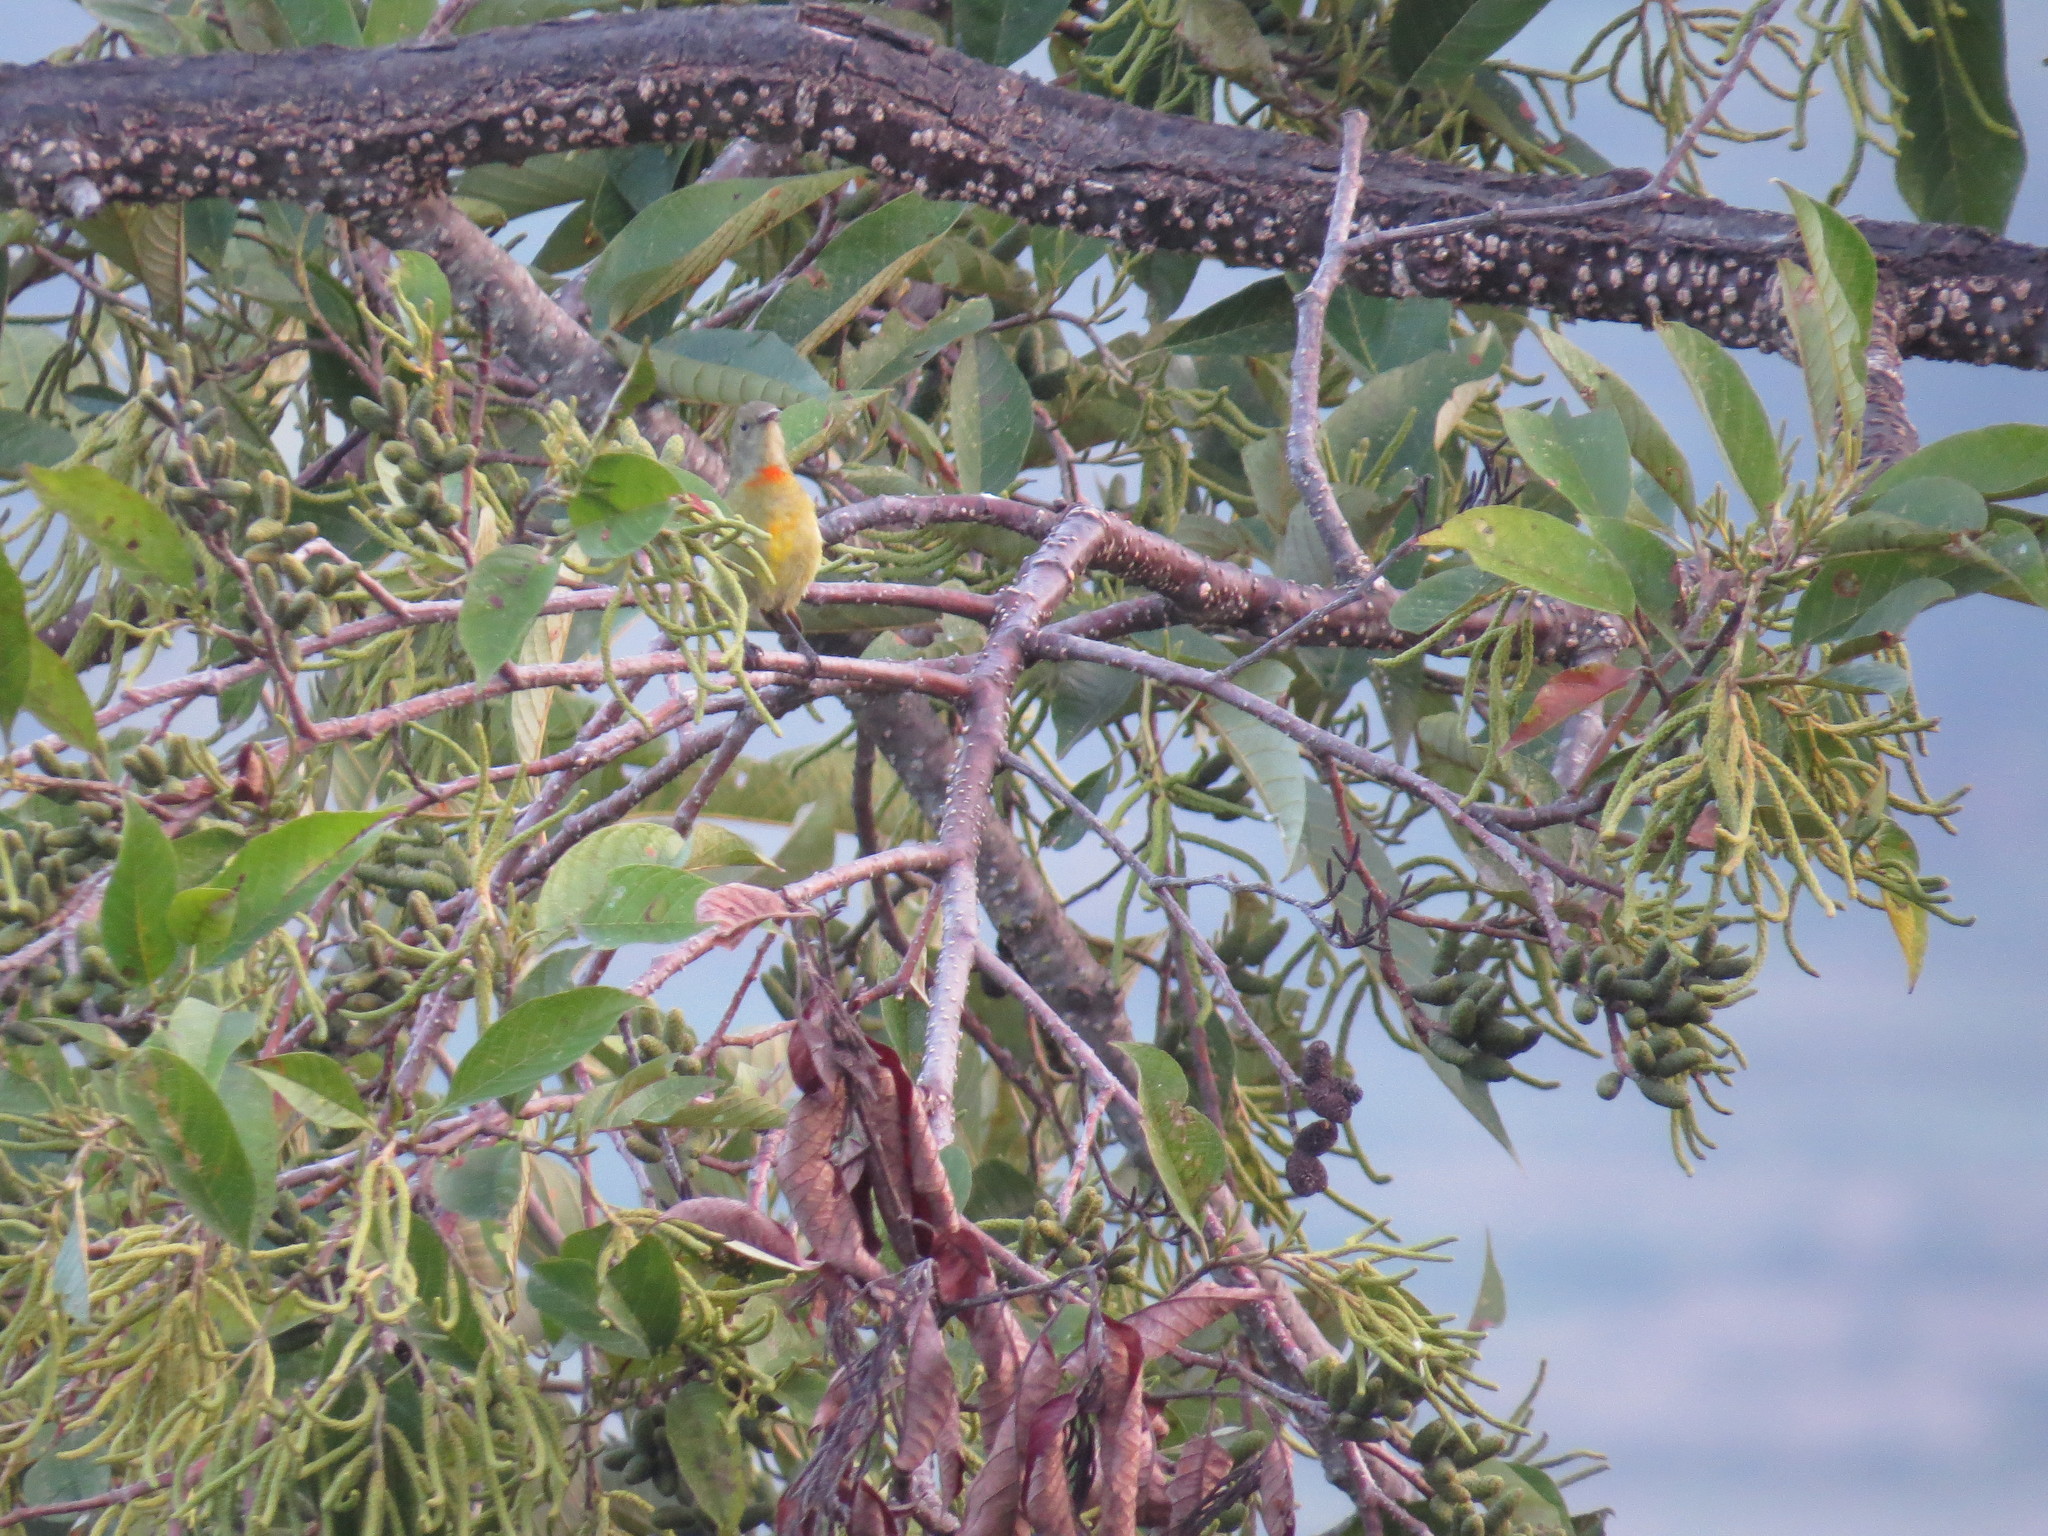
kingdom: Animalia
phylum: Chordata
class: Aves
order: Passeriformes
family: Nectariniidae
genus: Aethopyga
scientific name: Aethopyga gouldiae
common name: Mrs. gould's sunbird
